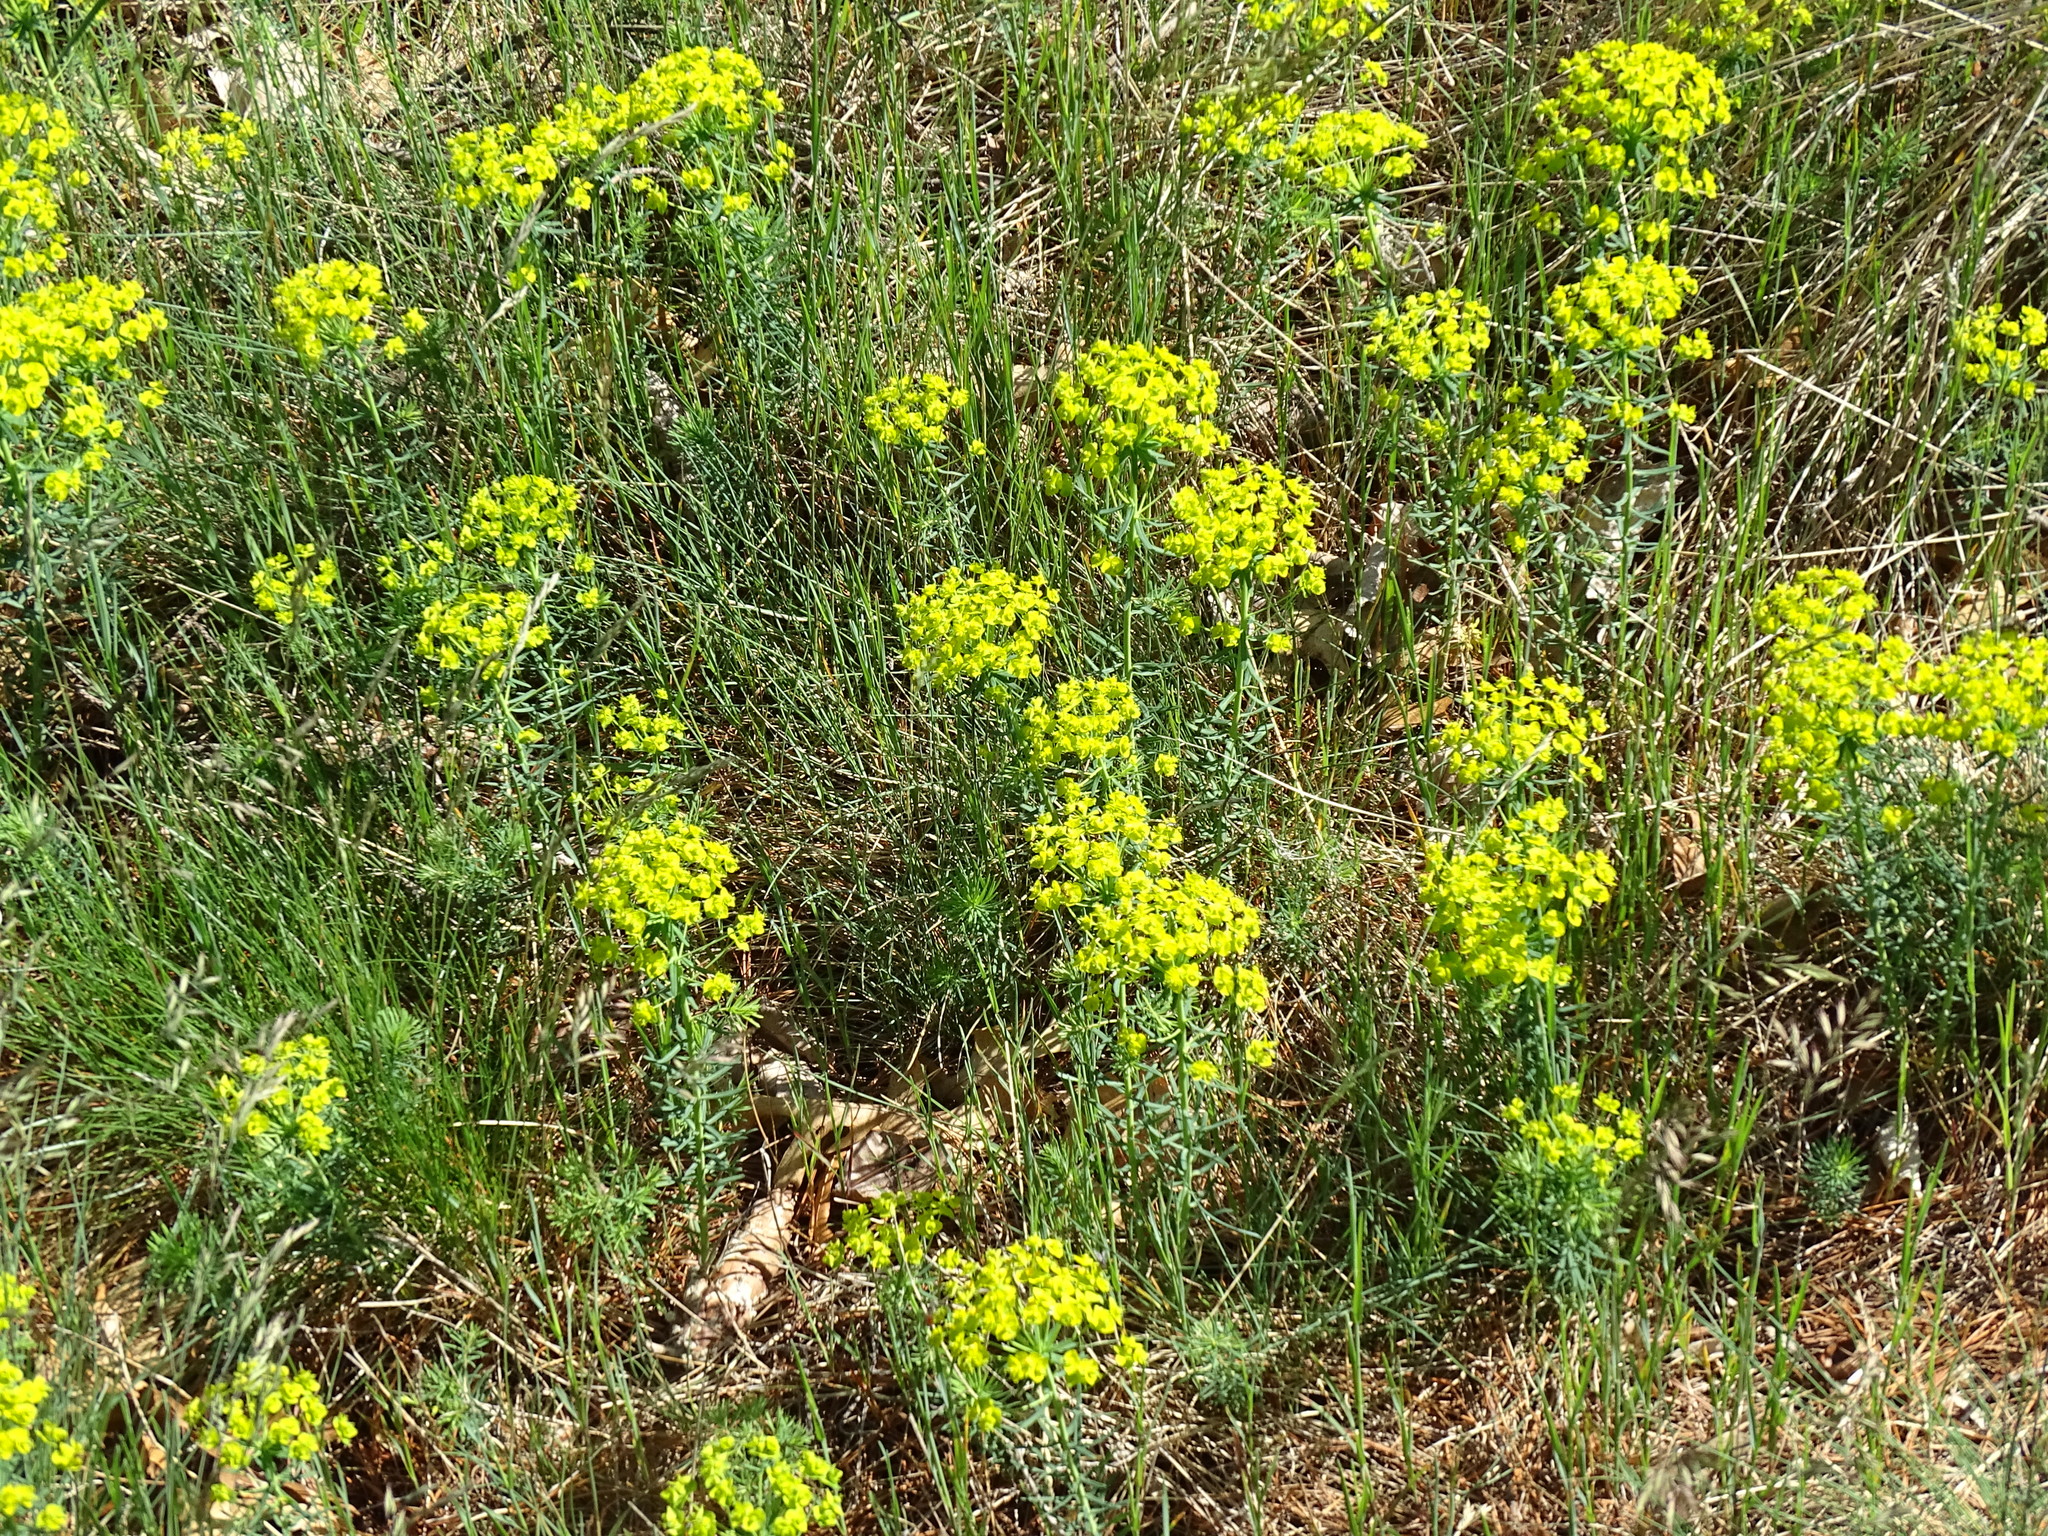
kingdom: Plantae
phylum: Tracheophyta
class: Magnoliopsida
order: Malpighiales
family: Euphorbiaceae
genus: Euphorbia
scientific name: Euphorbia cyparissias
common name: Cypress spurge
